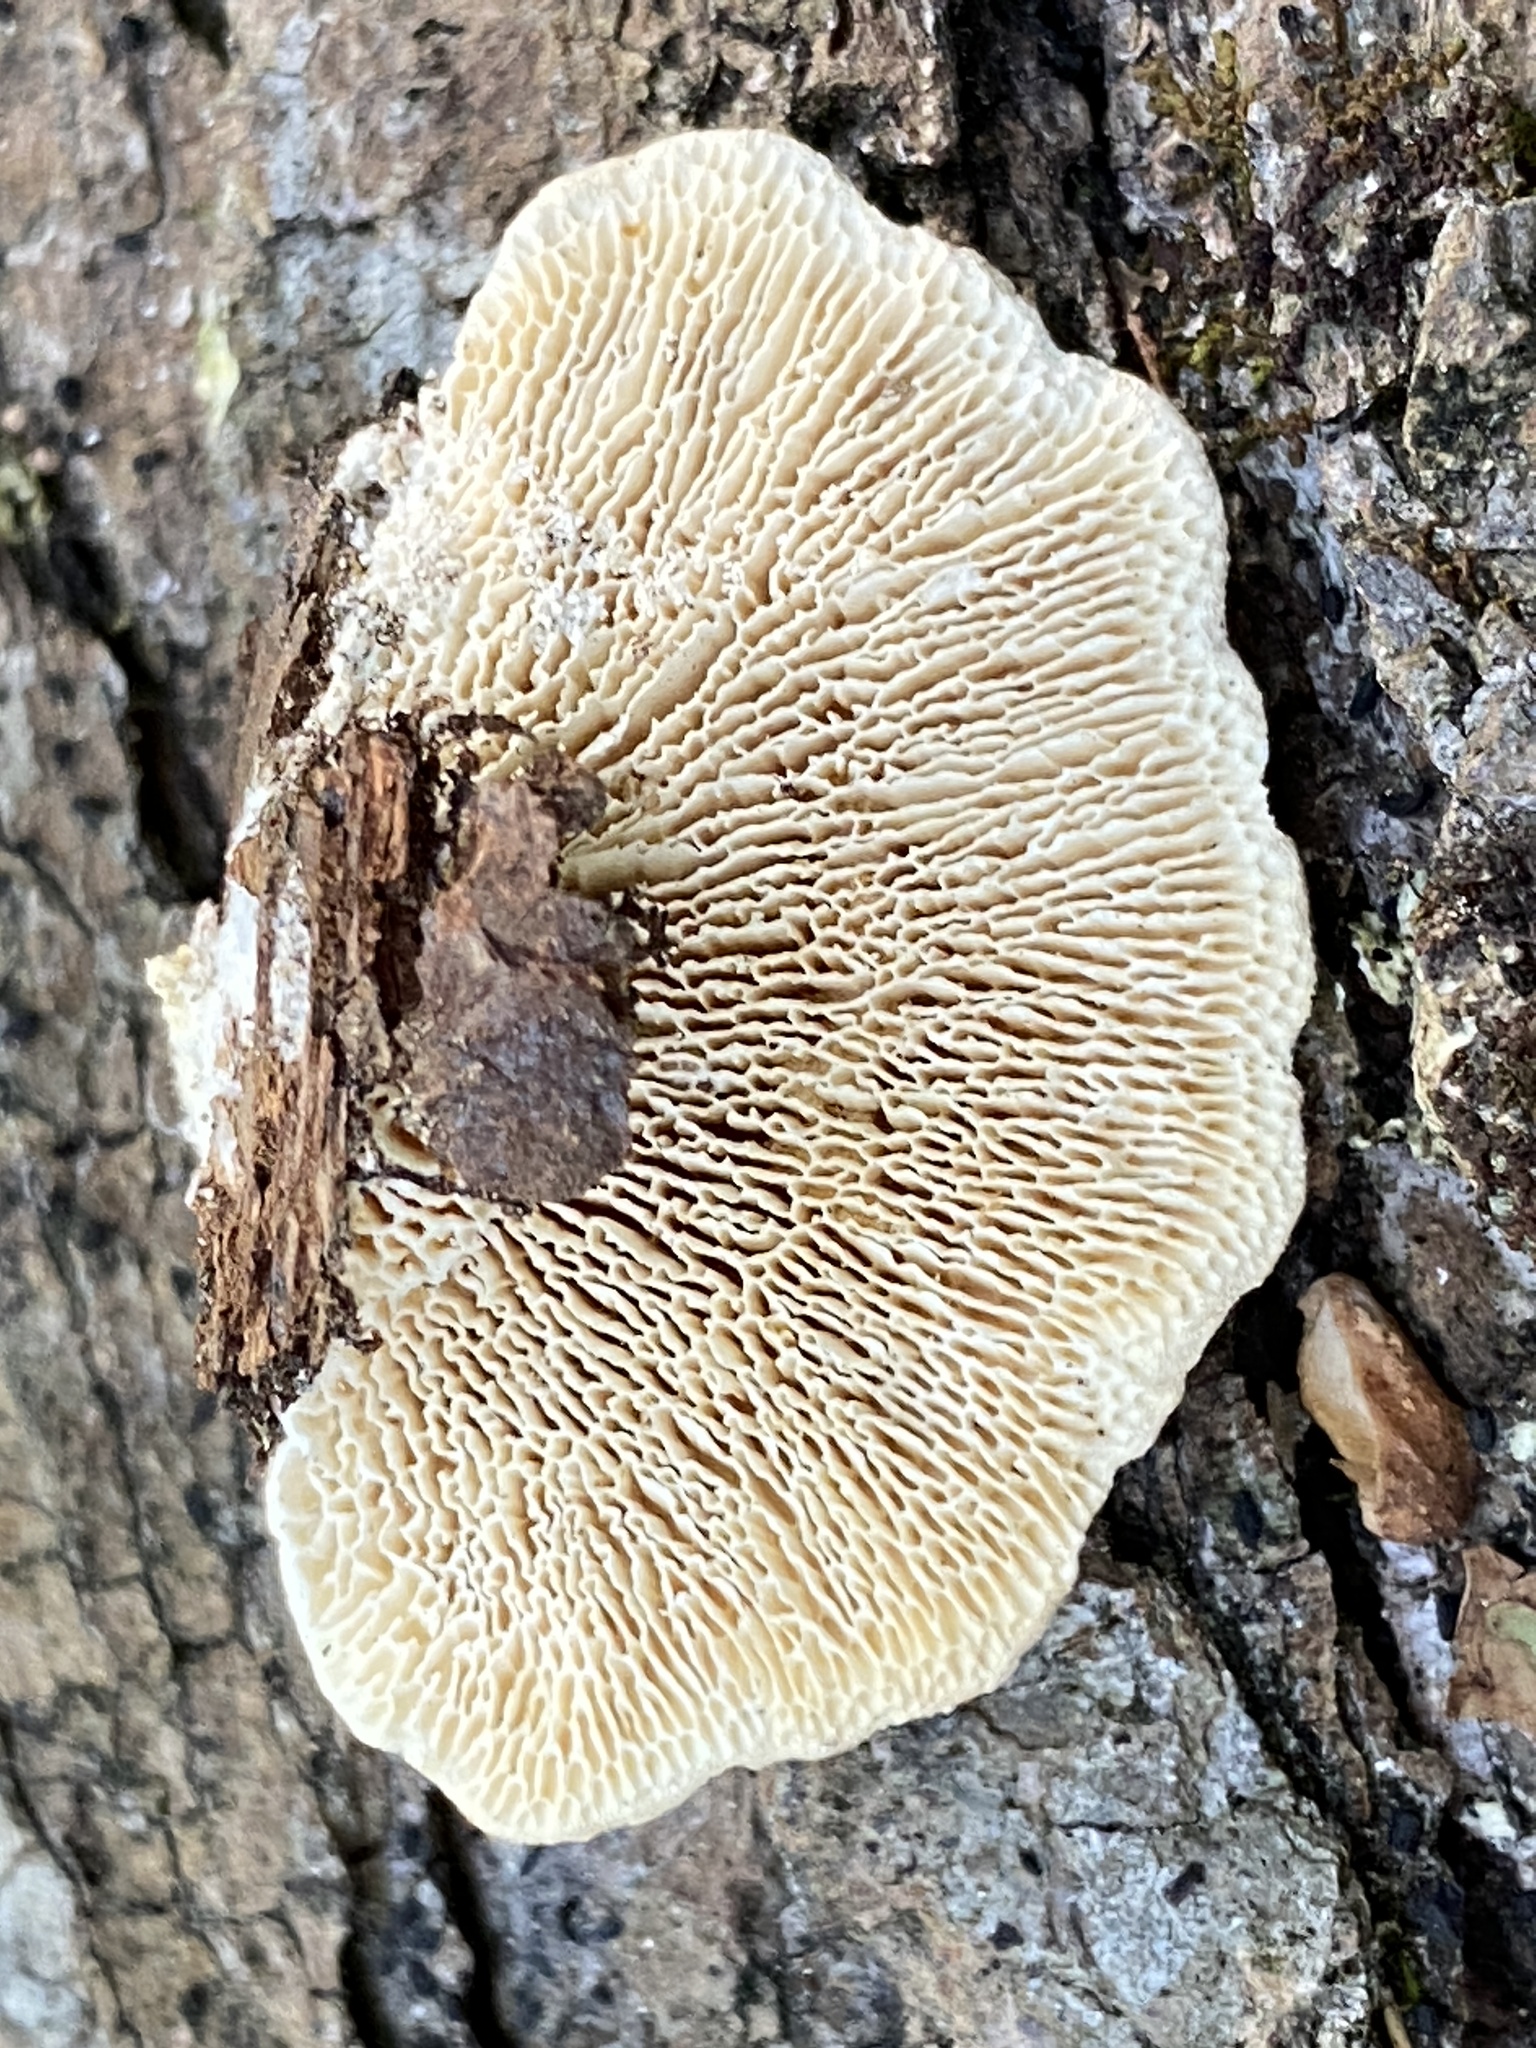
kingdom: Fungi
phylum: Basidiomycota
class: Agaricomycetes
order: Polyporales
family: Polyporaceae
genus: Lenzites
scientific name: Lenzites betulinus
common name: Birch mazegill
